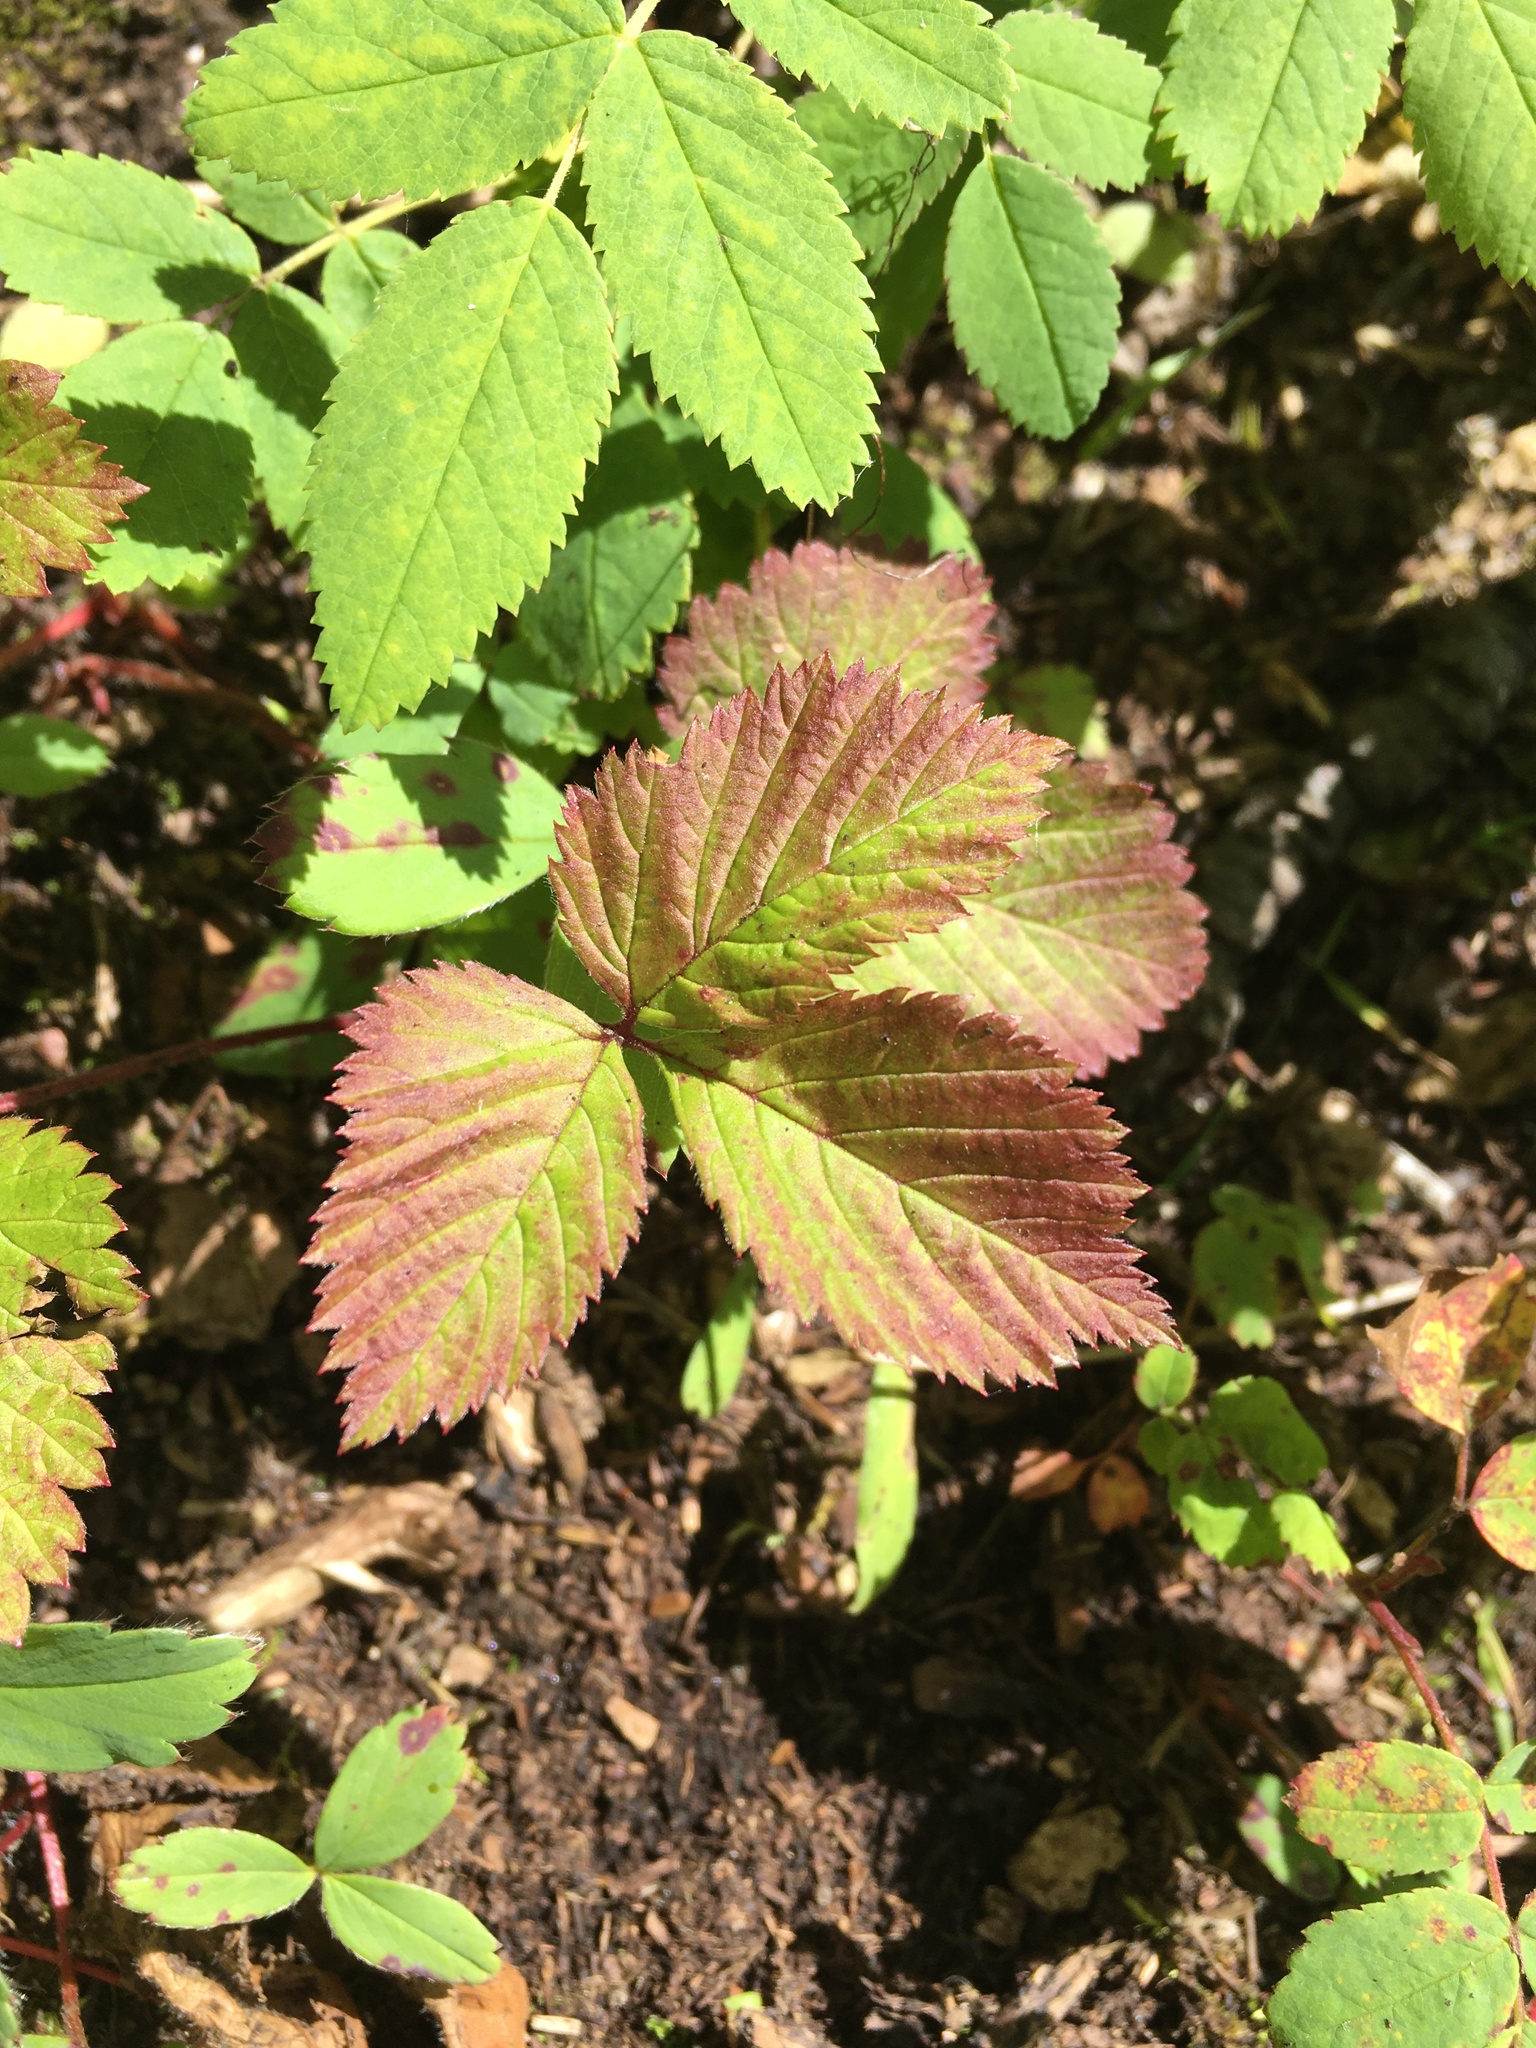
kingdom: Plantae
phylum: Tracheophyta
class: Magnoliopsida
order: Rosales
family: Rosaceae
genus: Rubus
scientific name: Rubus pubescens
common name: Dwarf raspberry
